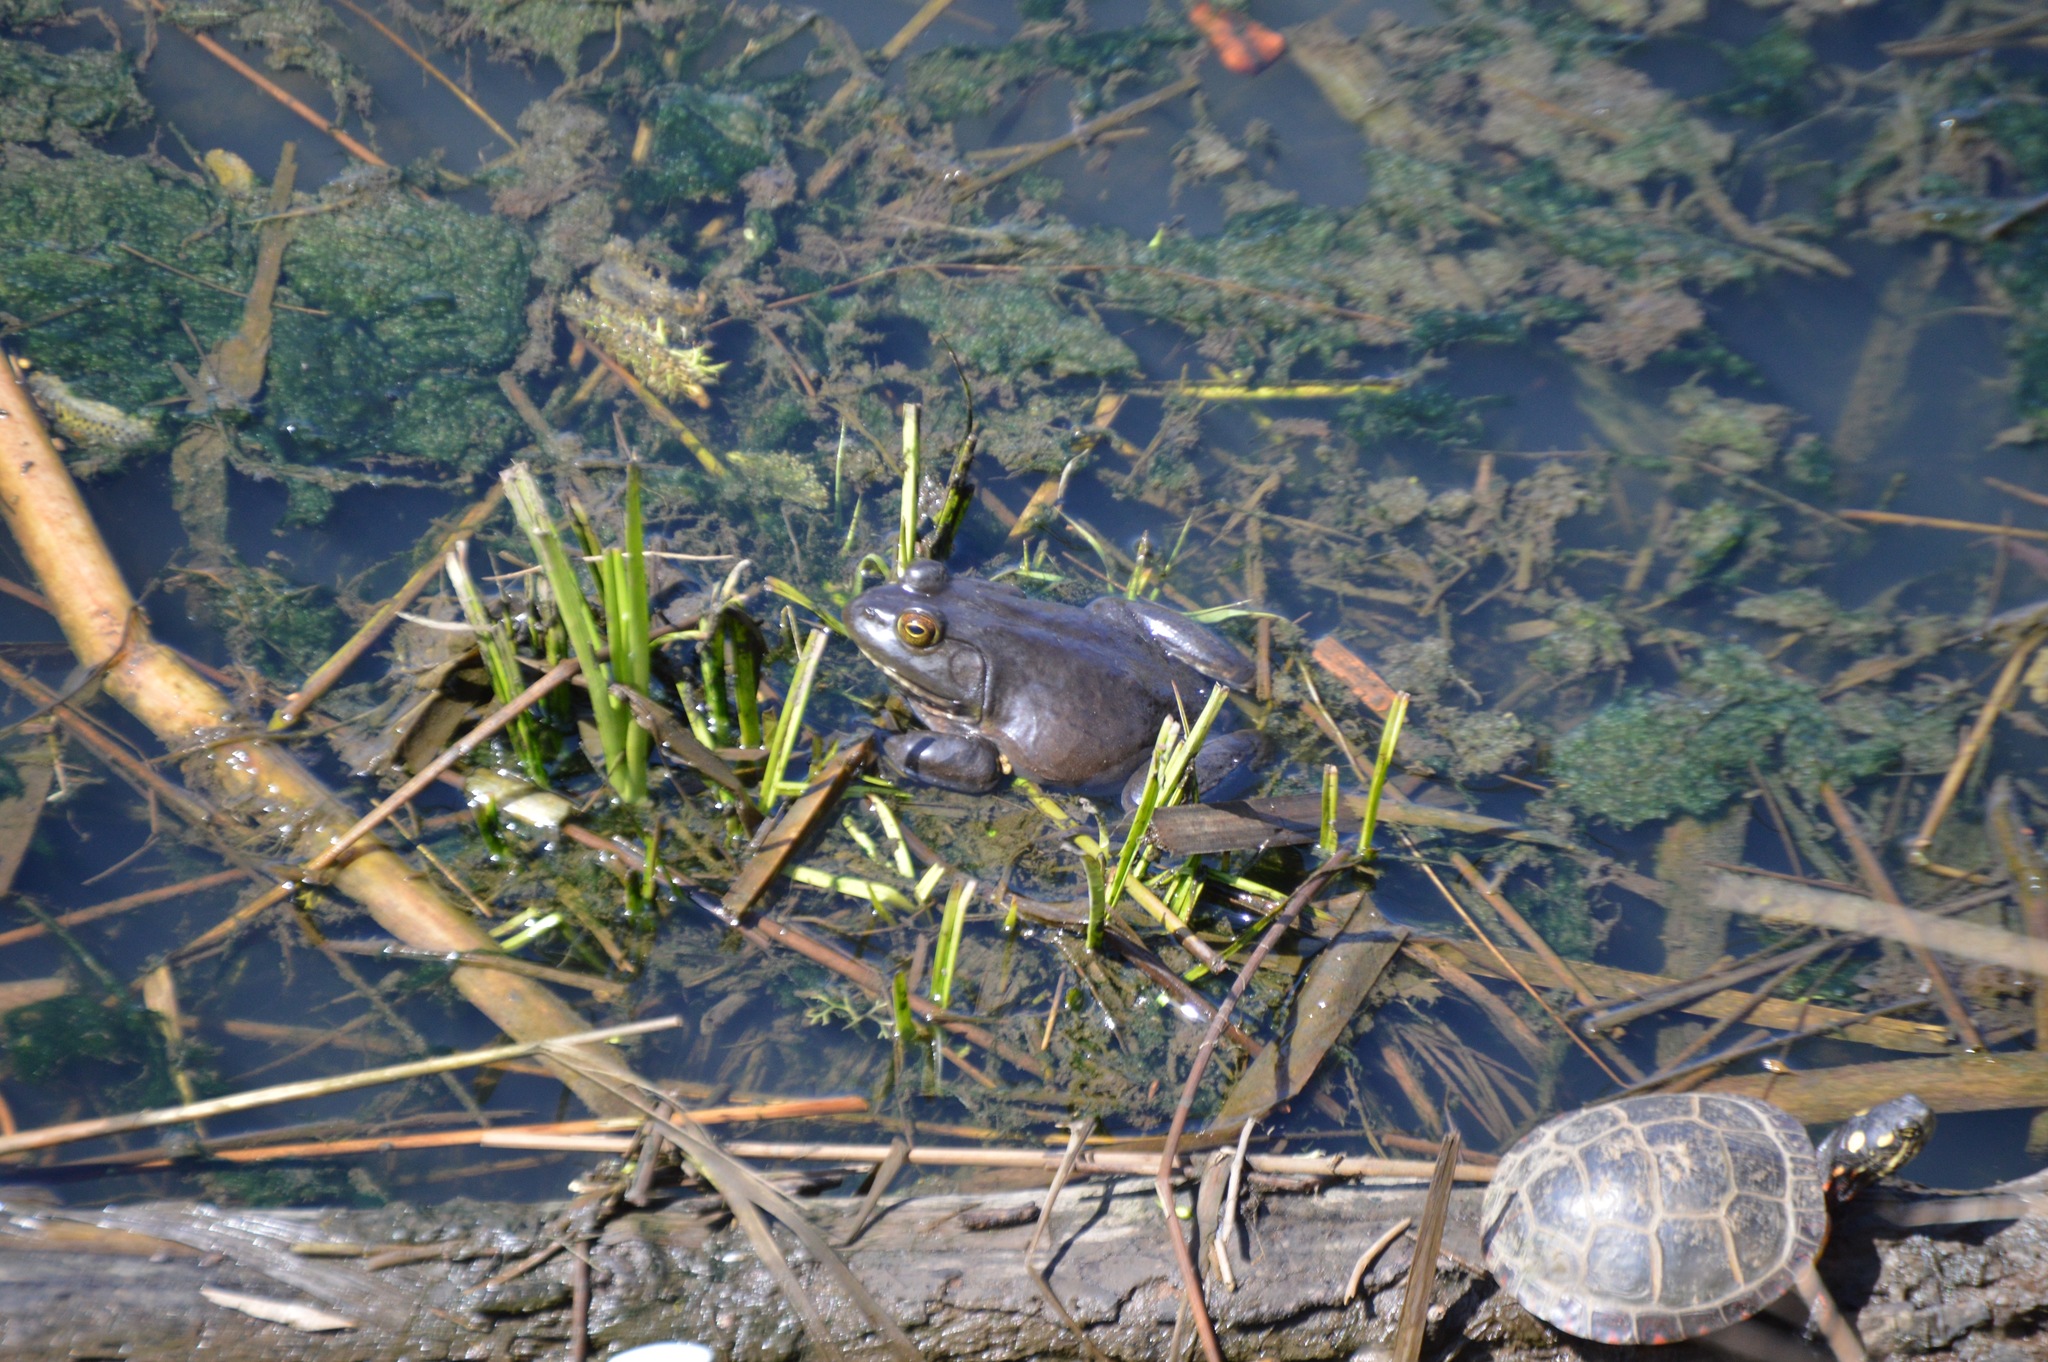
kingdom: Animalia
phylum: Chordata
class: Amphibia
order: Anura
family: Ranidae
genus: Lithobates
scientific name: Lithobates catesbeianus
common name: American bullfrog
